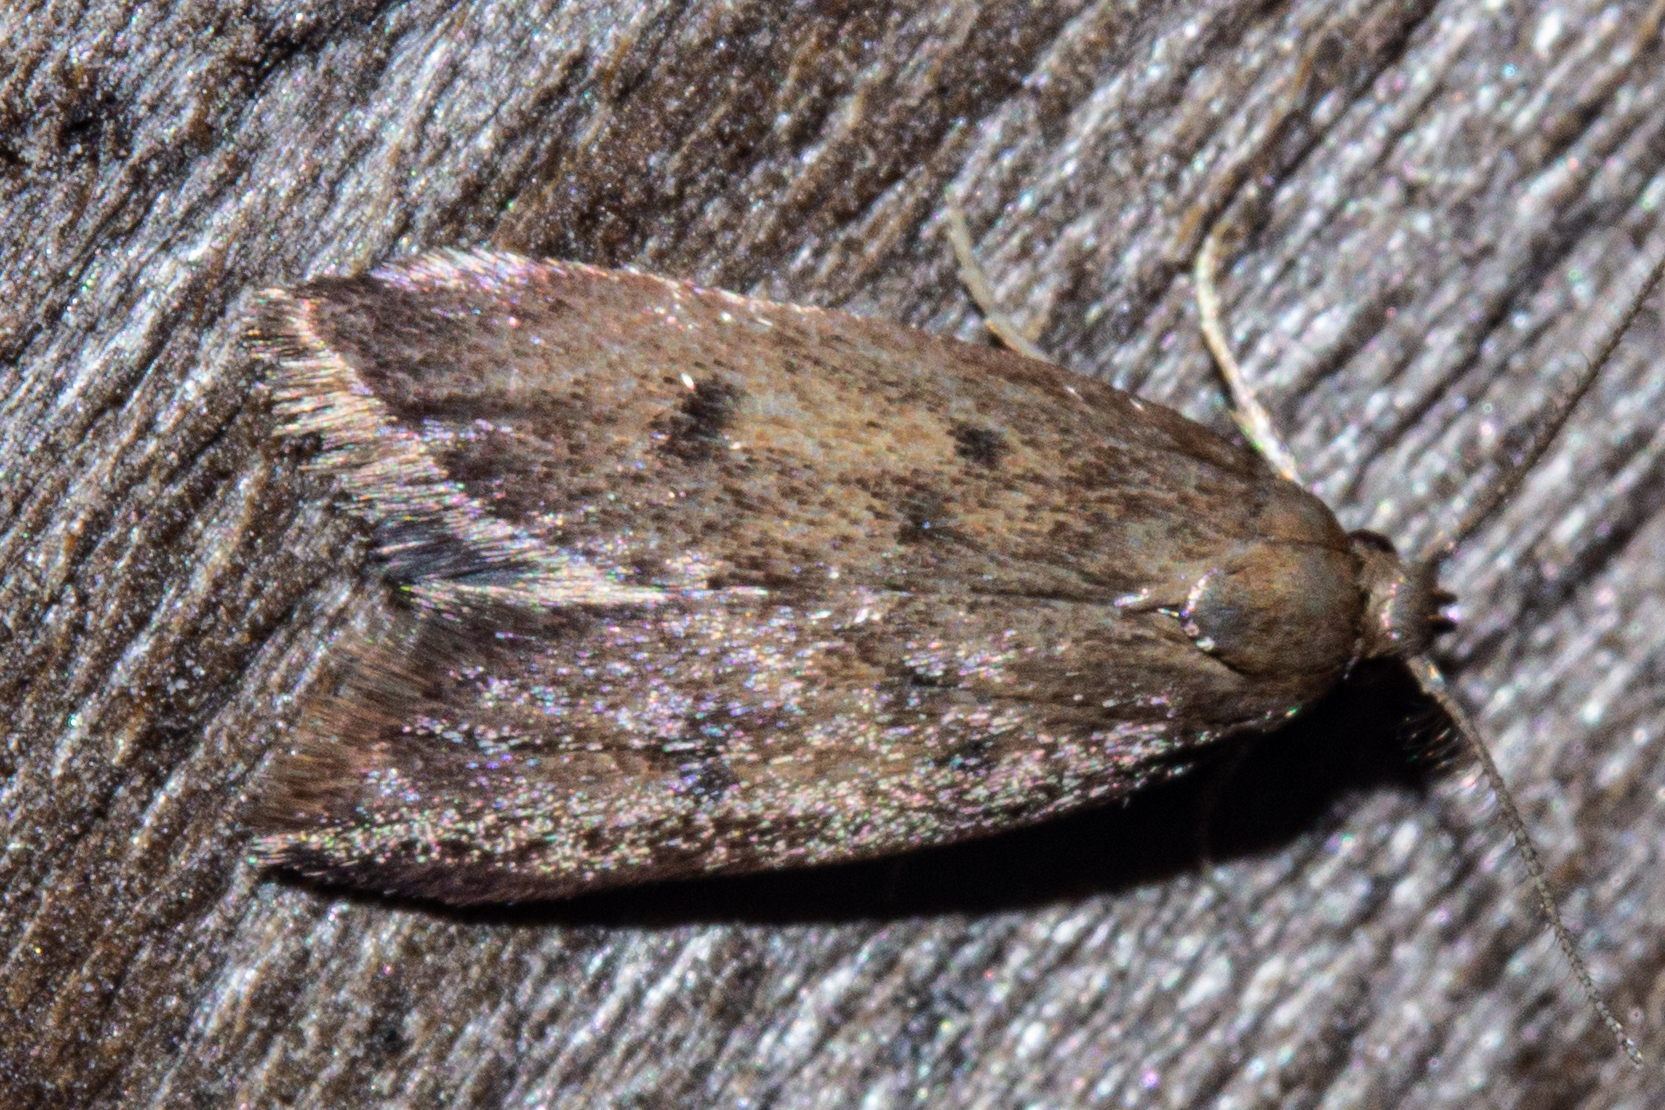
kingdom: Animalia
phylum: Arthropoda
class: Insecta
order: Lepidoptera
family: Oecophoridae
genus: Tachystola
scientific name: Tachystola acroxantha
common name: Ruddy streak
